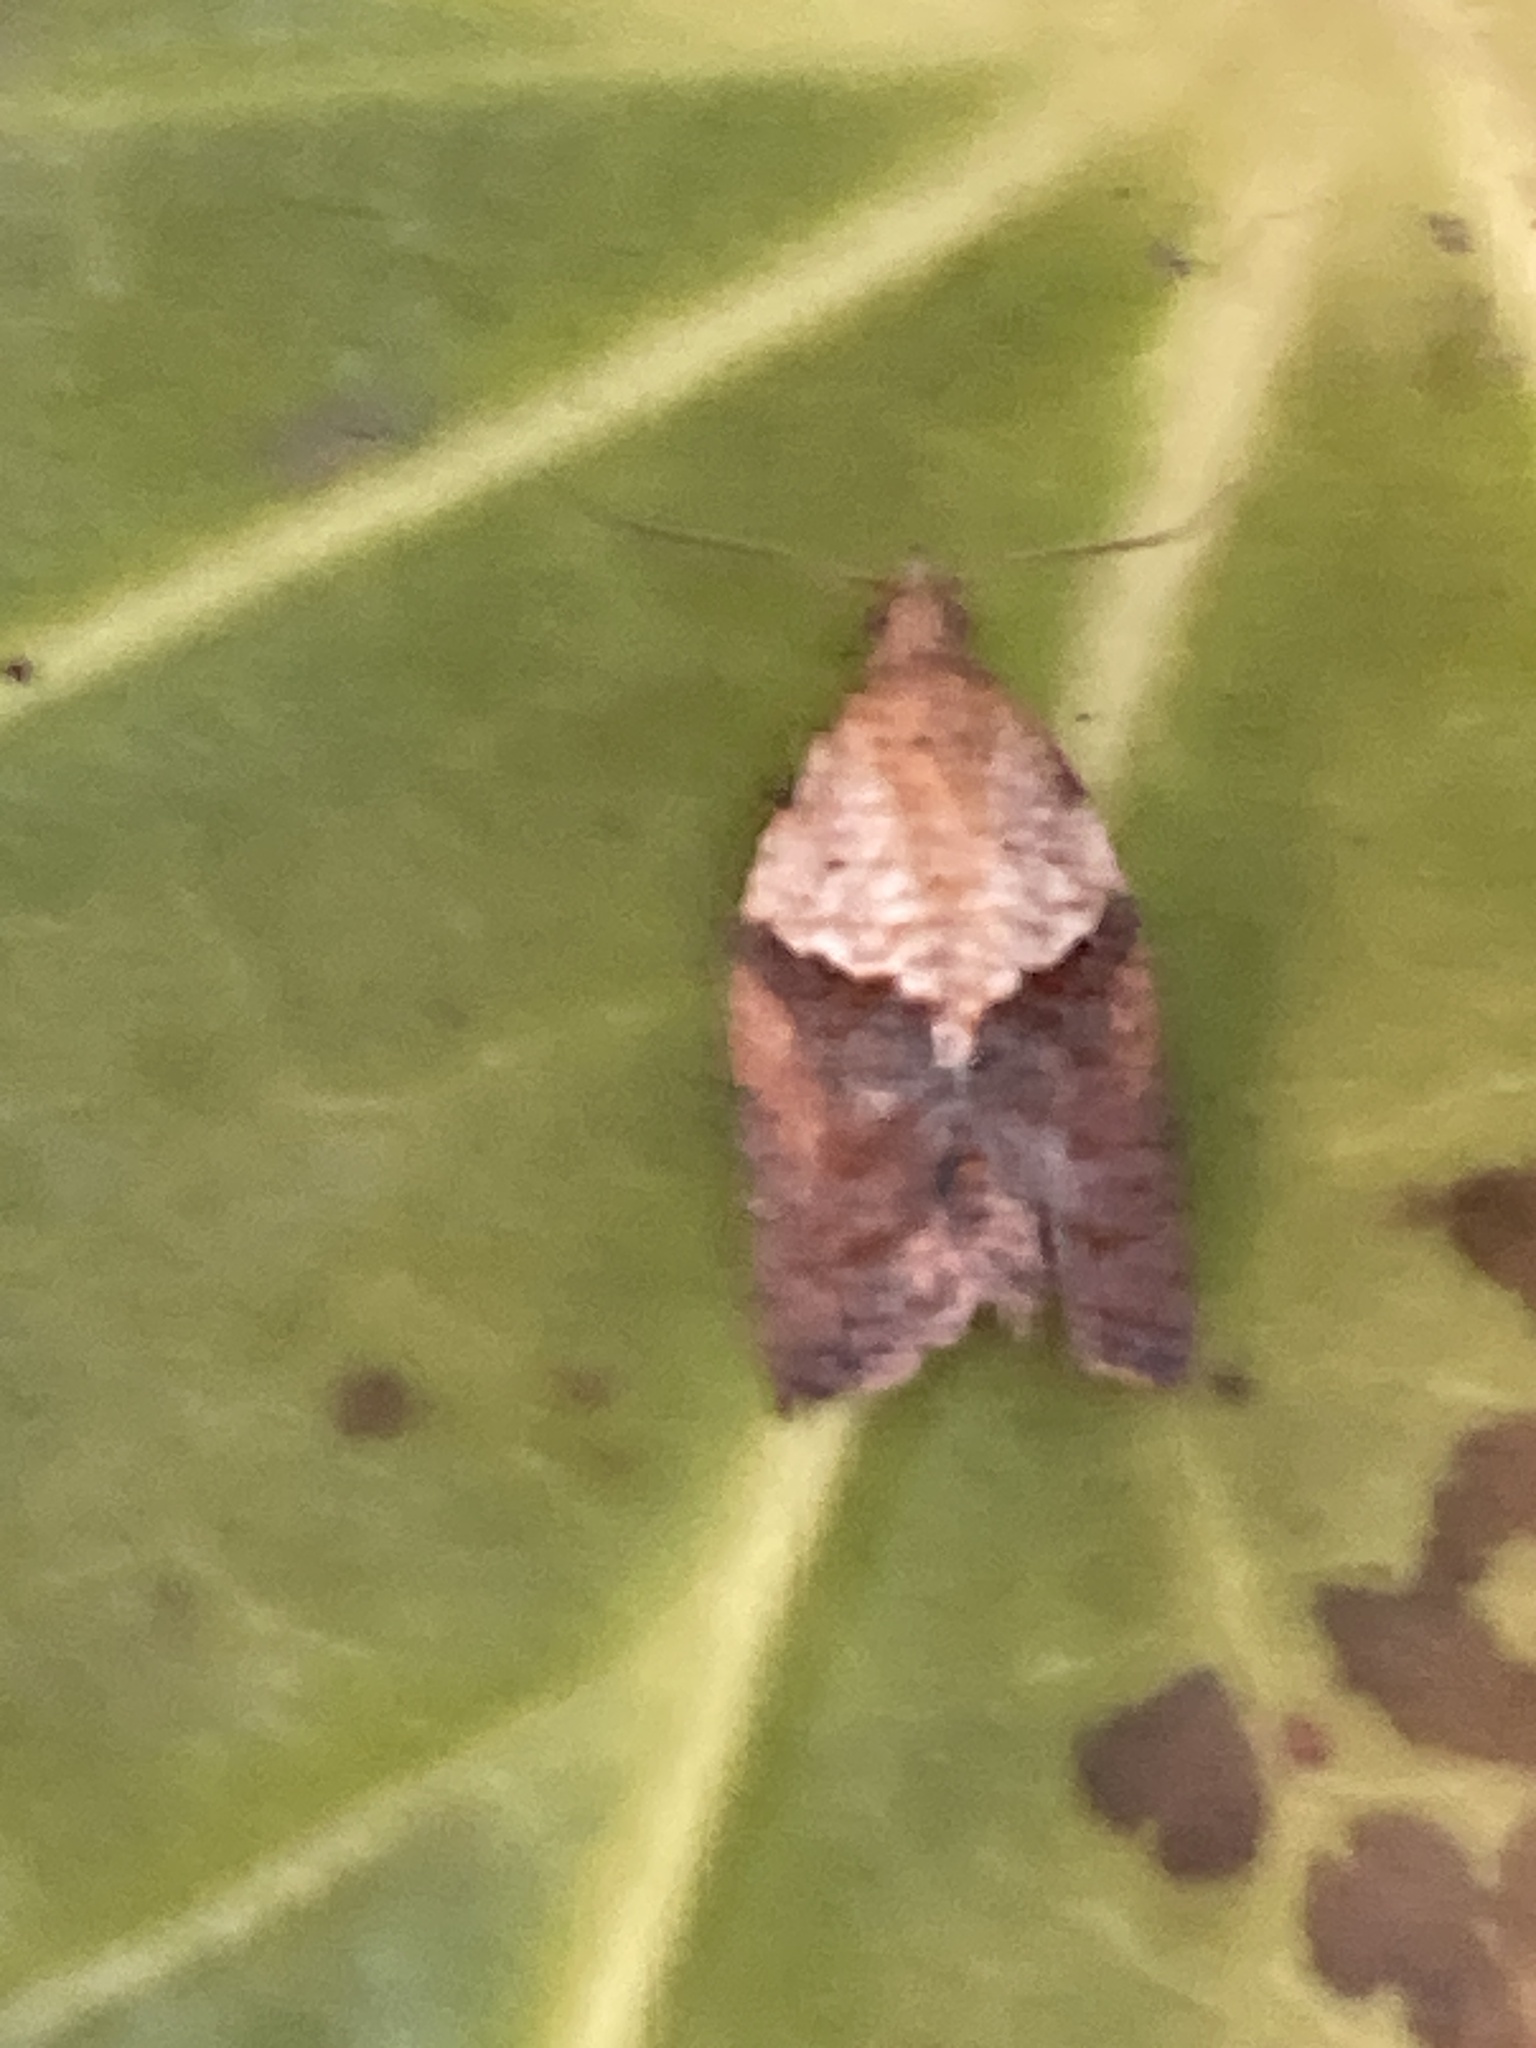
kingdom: Animalia
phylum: Arthropoda
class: Insecta
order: Lepidoptera
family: Tortricidae
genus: Epiphyas
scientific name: Epiphyas postvittana
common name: Light brown apple moth
